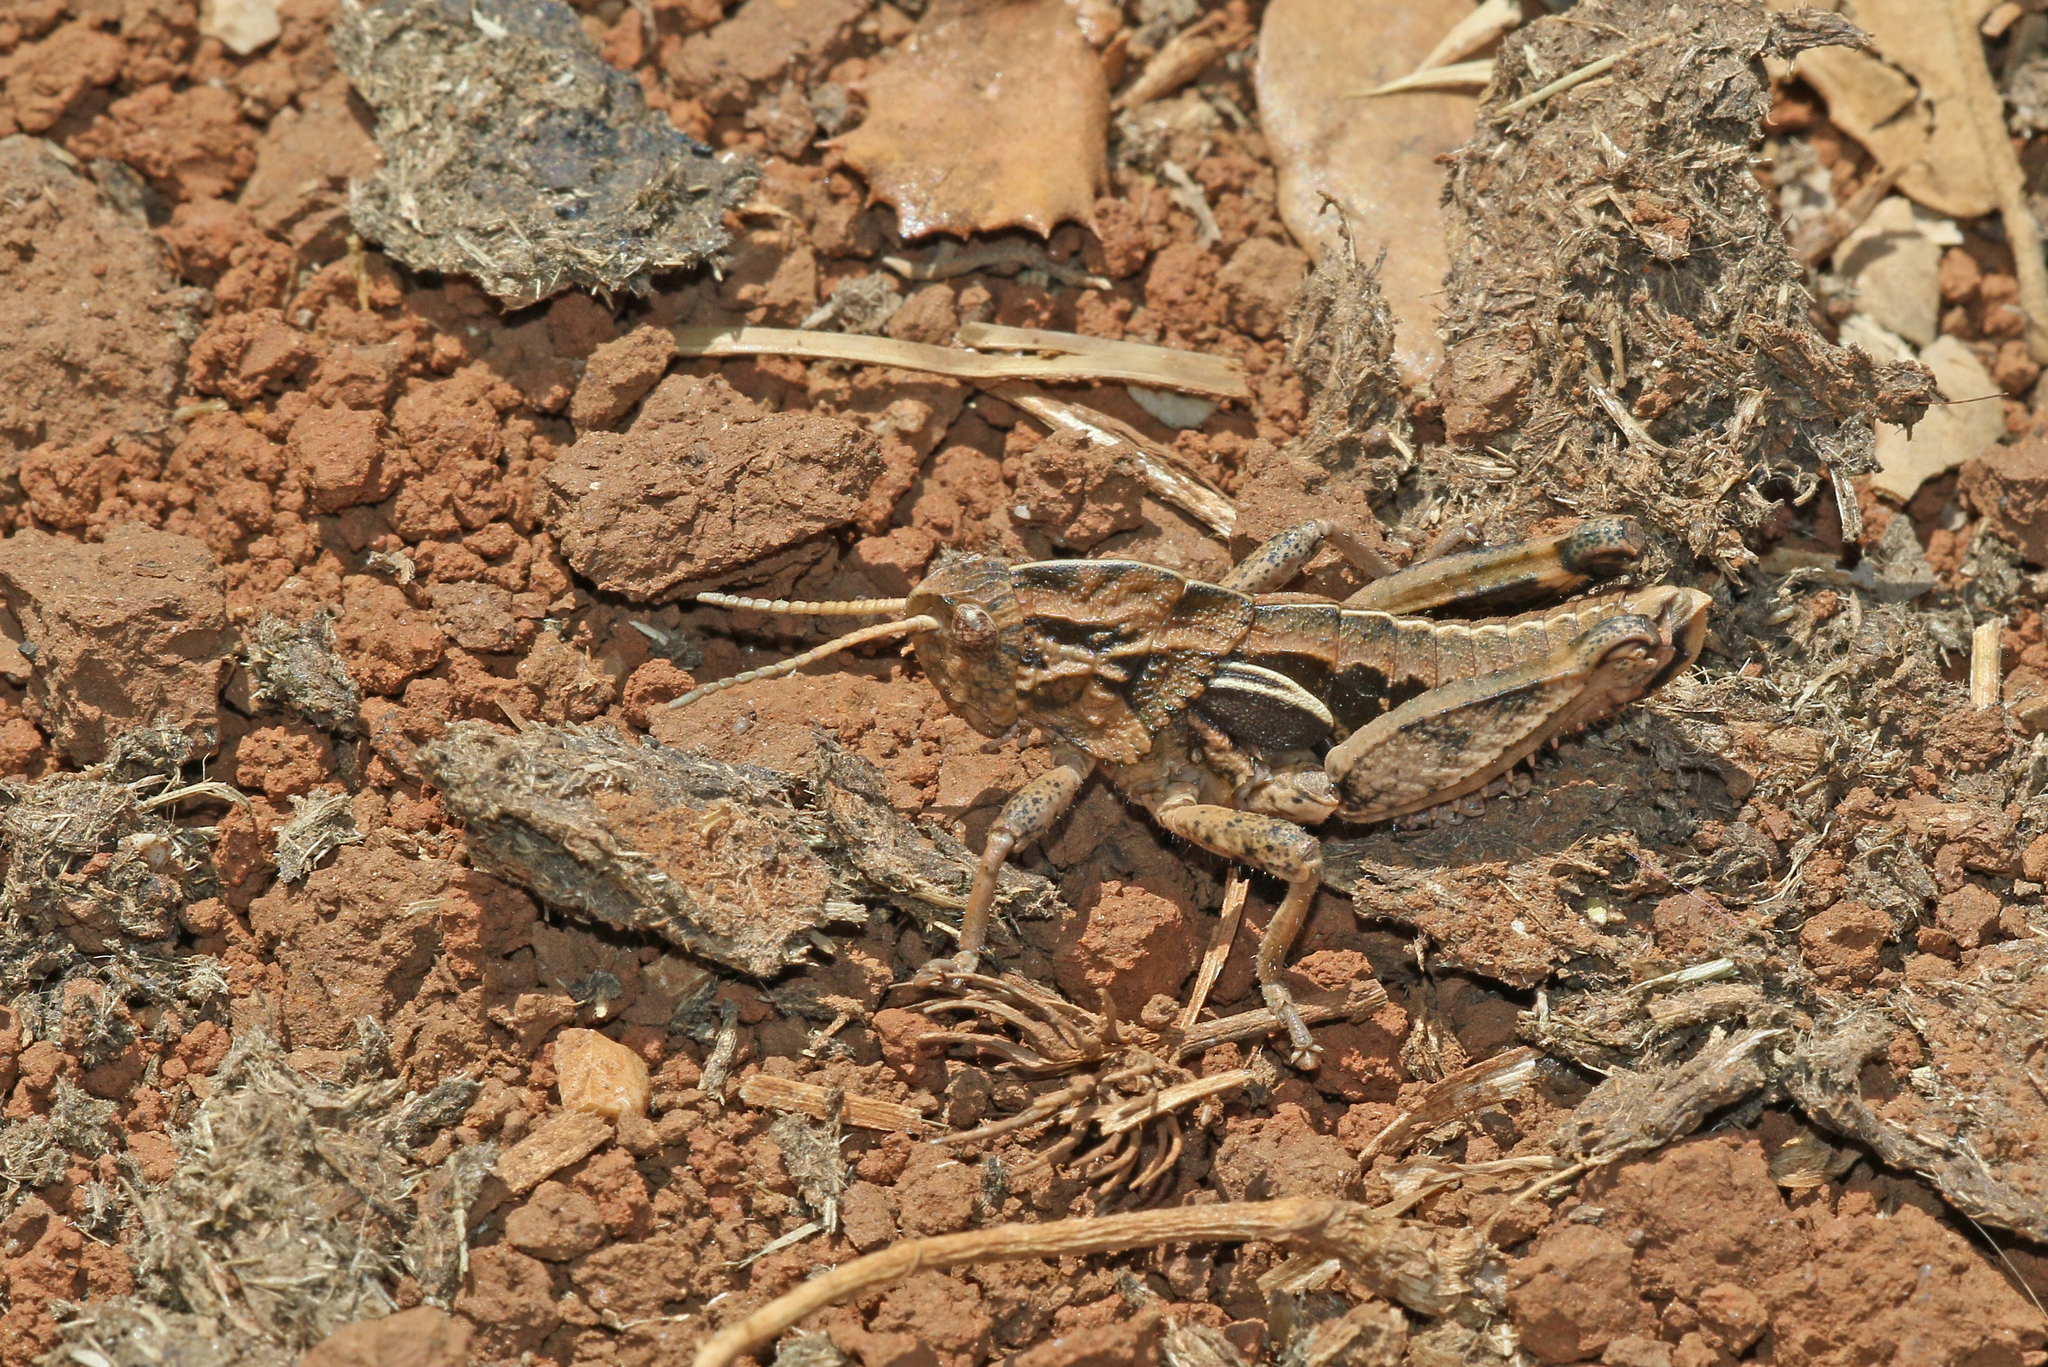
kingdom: Animalia
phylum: Arthropoda
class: Insecta
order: Orthoptera
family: Pamphagidae
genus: Euryparyphes
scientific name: Euryparyphes terrulentus
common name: Earthling stone grasshopper
